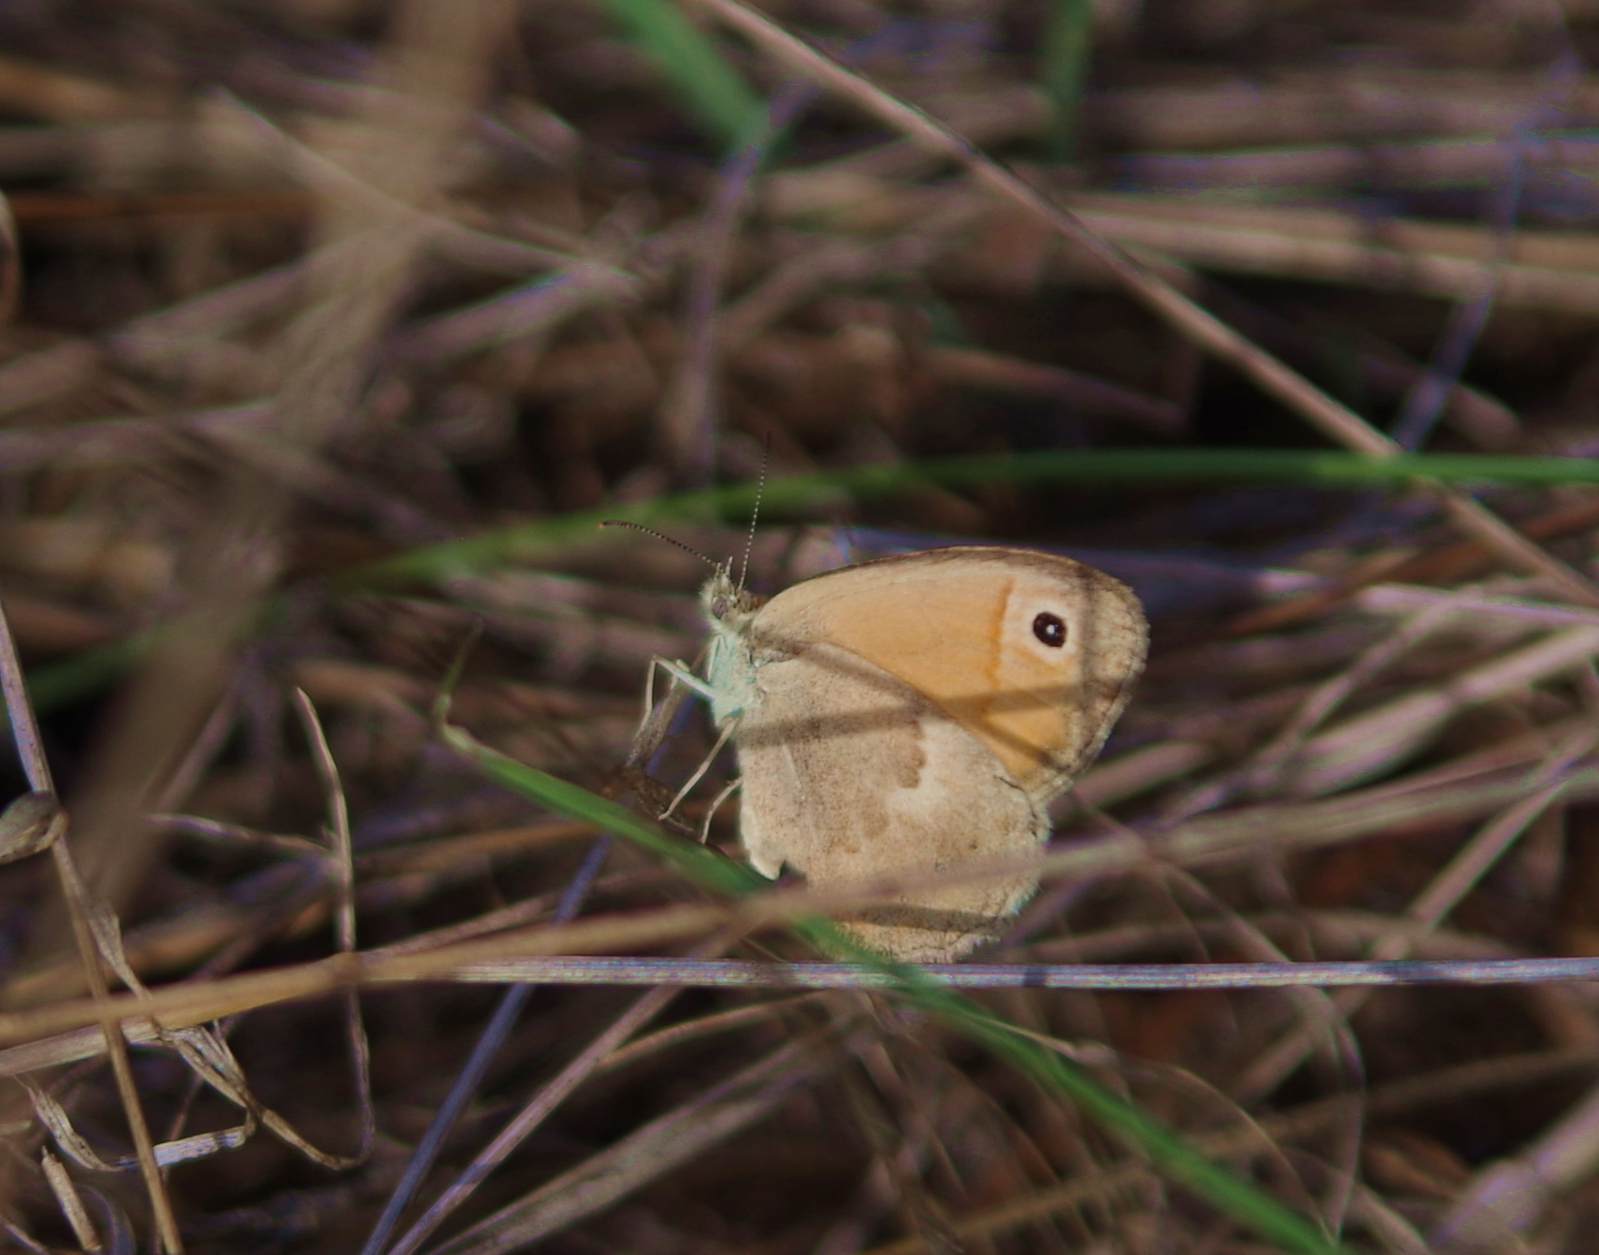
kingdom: Animalia
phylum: Arthropoda
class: Insecta
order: Lepidoptera
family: Nymphalidae
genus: Coenonympha
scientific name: Coenonympha pamphilus
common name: Small heath
